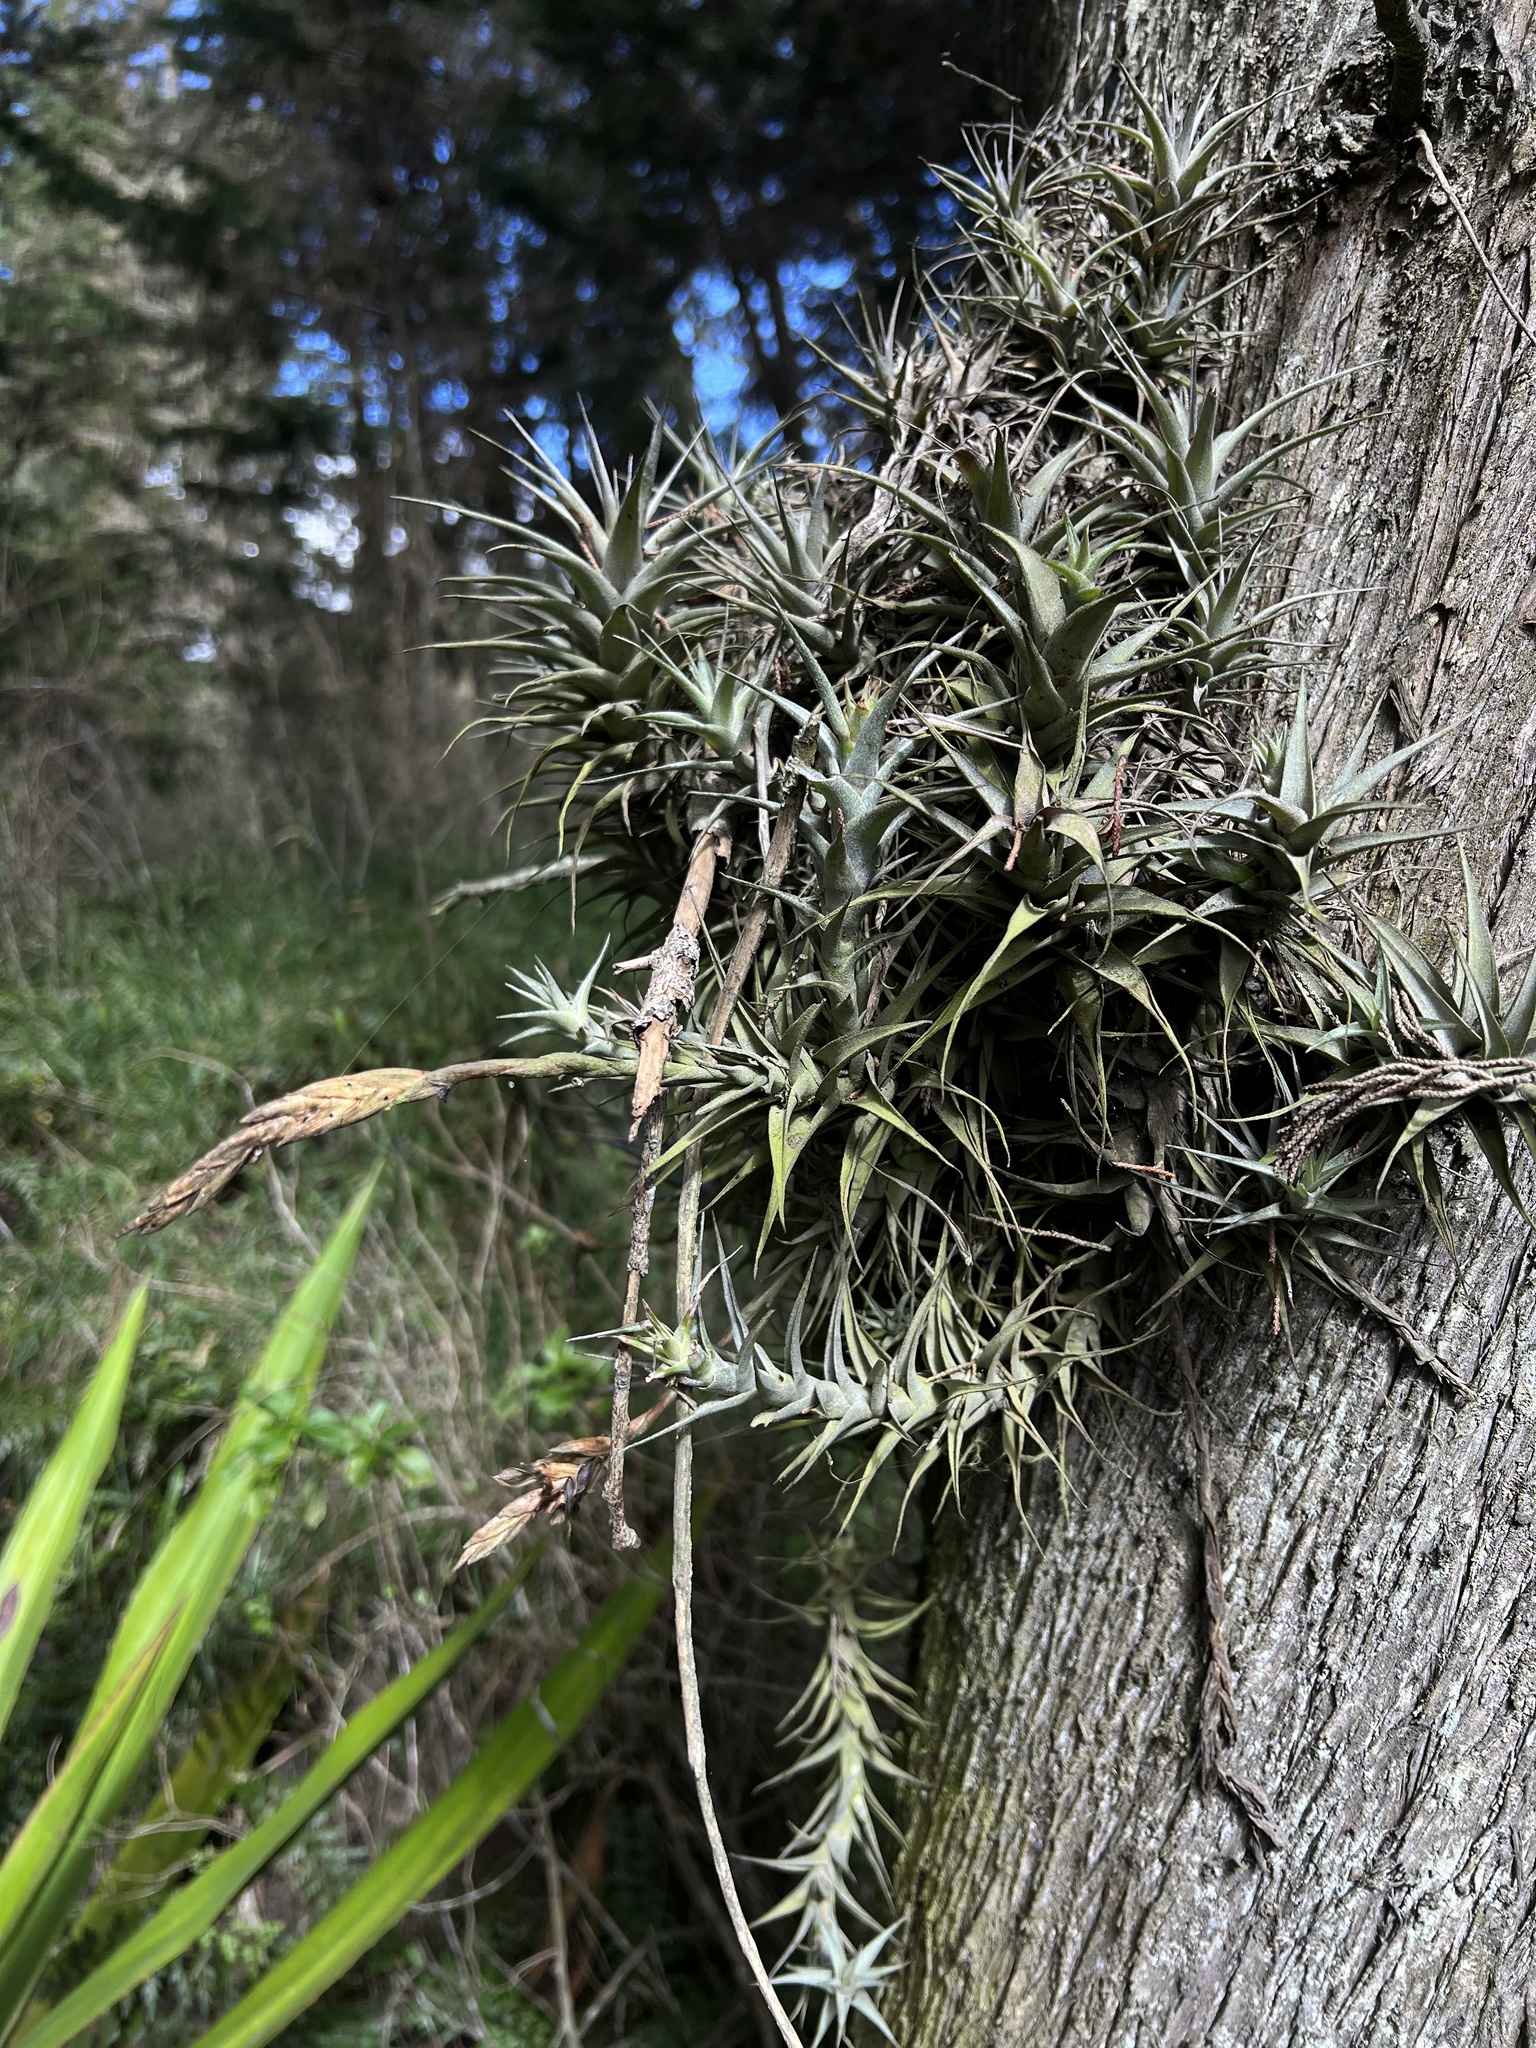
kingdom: Plantae
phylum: Tracheophyta
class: Liliopsida
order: Poales
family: Bromeliaceae
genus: Tillandsia
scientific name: Tillandsia incarnata
